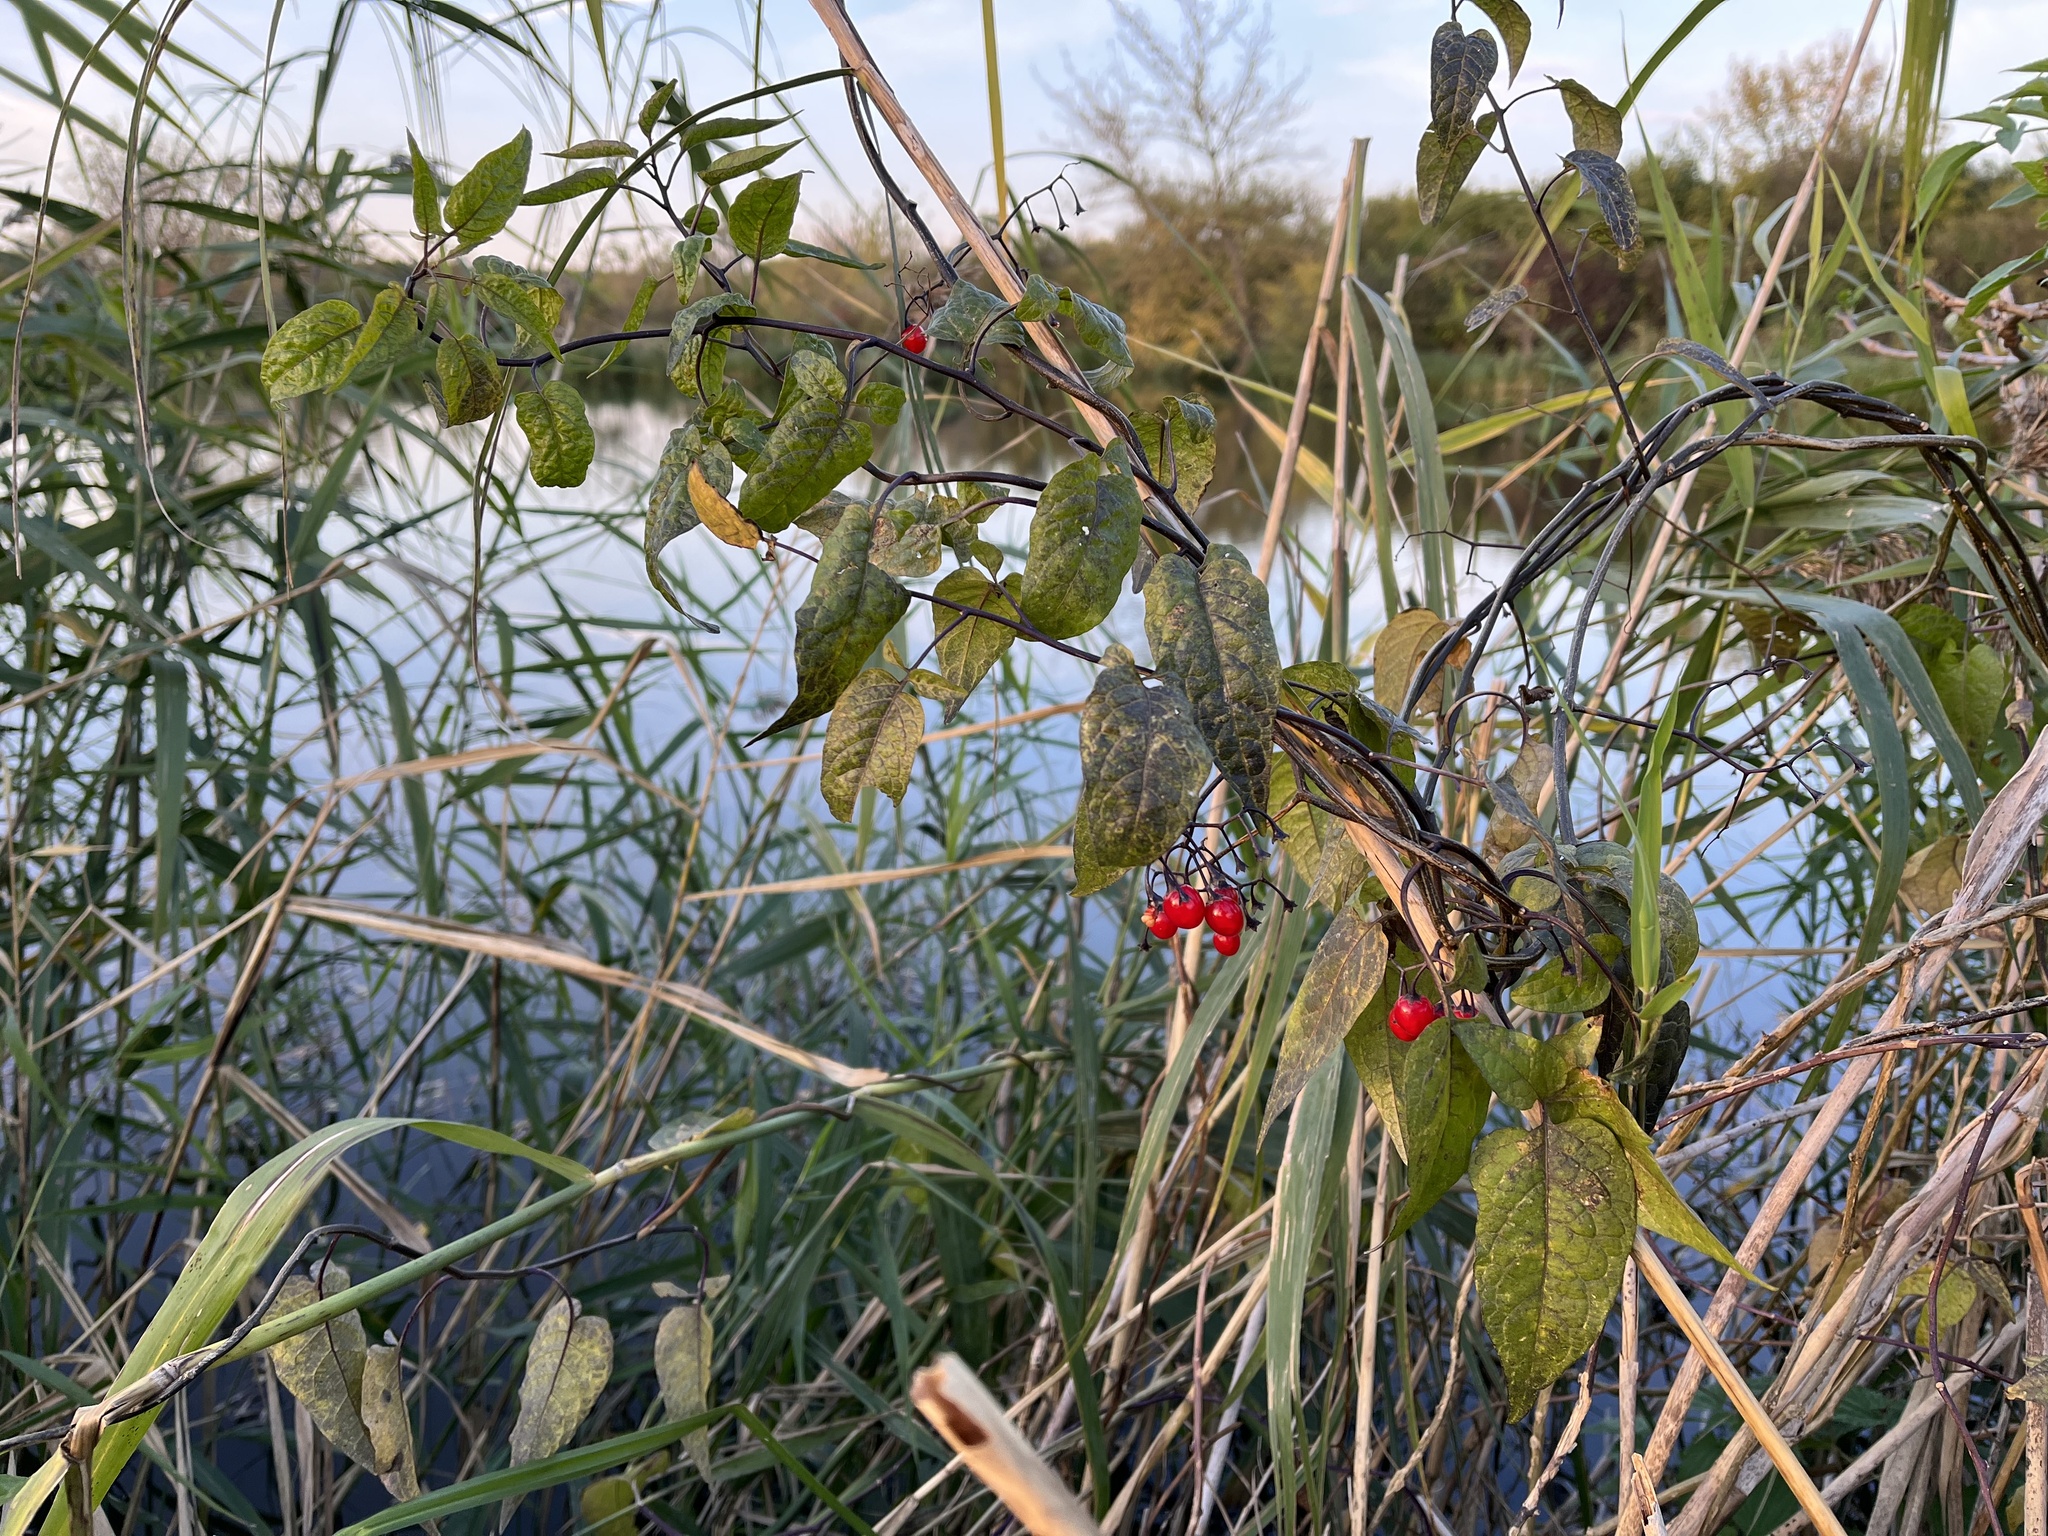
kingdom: Plantae
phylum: Tracheophyta
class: Magnoliopsida
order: Solanales
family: Solanaceae
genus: Solanum
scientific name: Solanum dulcamara
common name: Climbing nightshade
